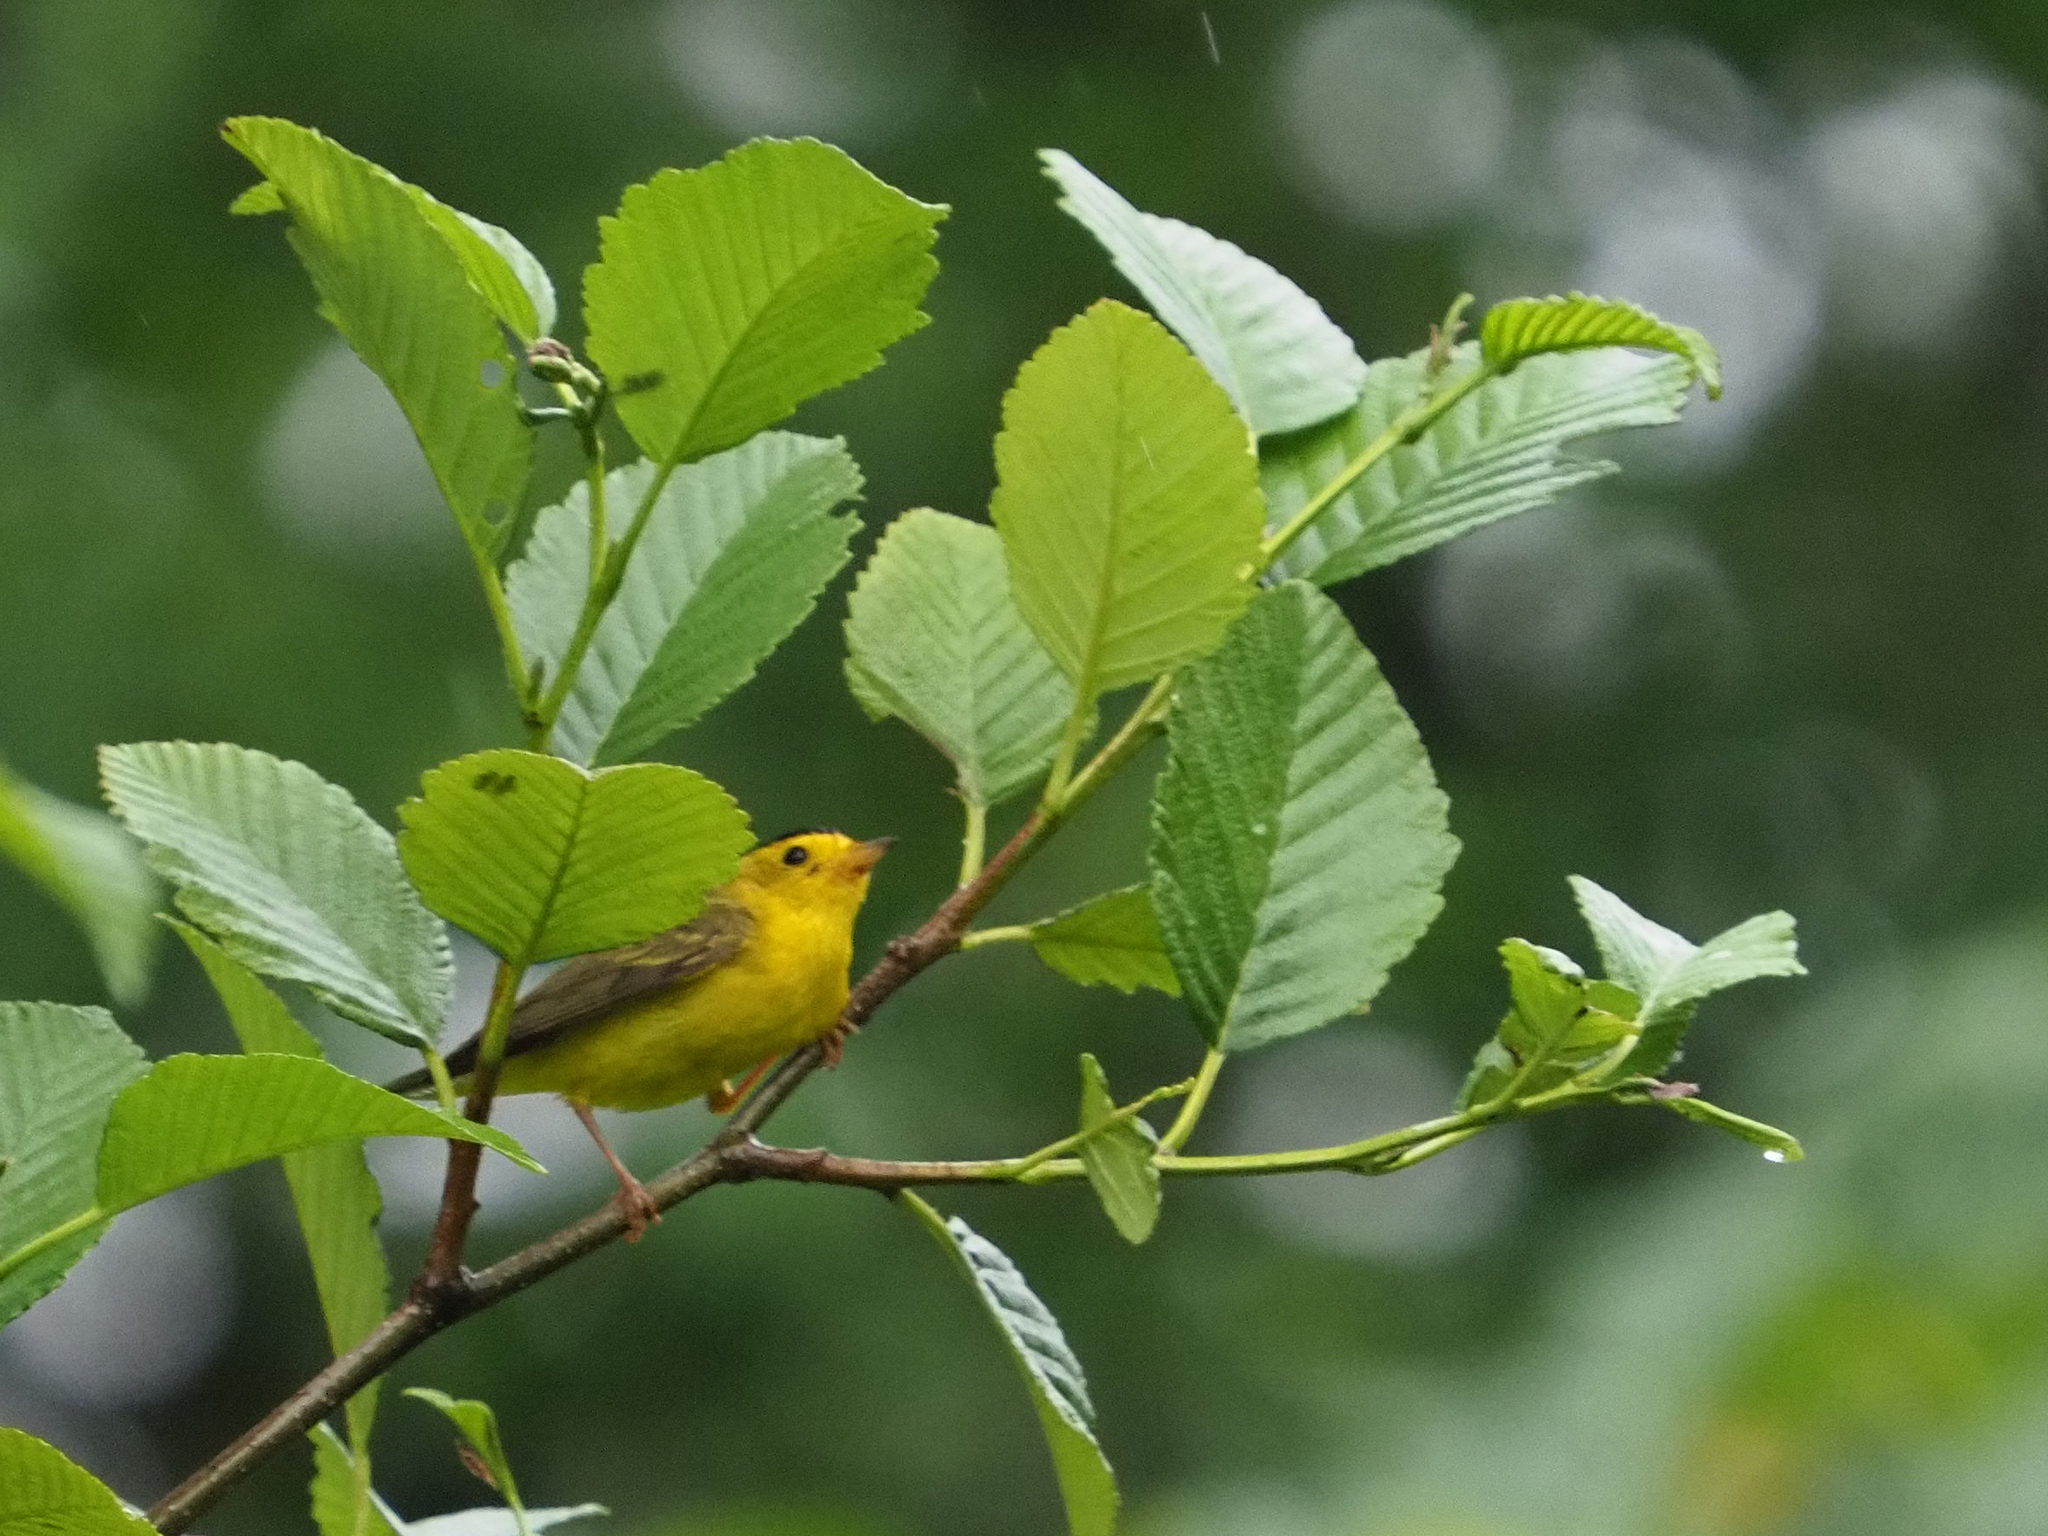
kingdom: Animalia
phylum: Chordata
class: Aves
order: Passeriformes
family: Parulidae
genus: Cardellina
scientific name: Cardellina pusilla
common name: Wilson's warbler
